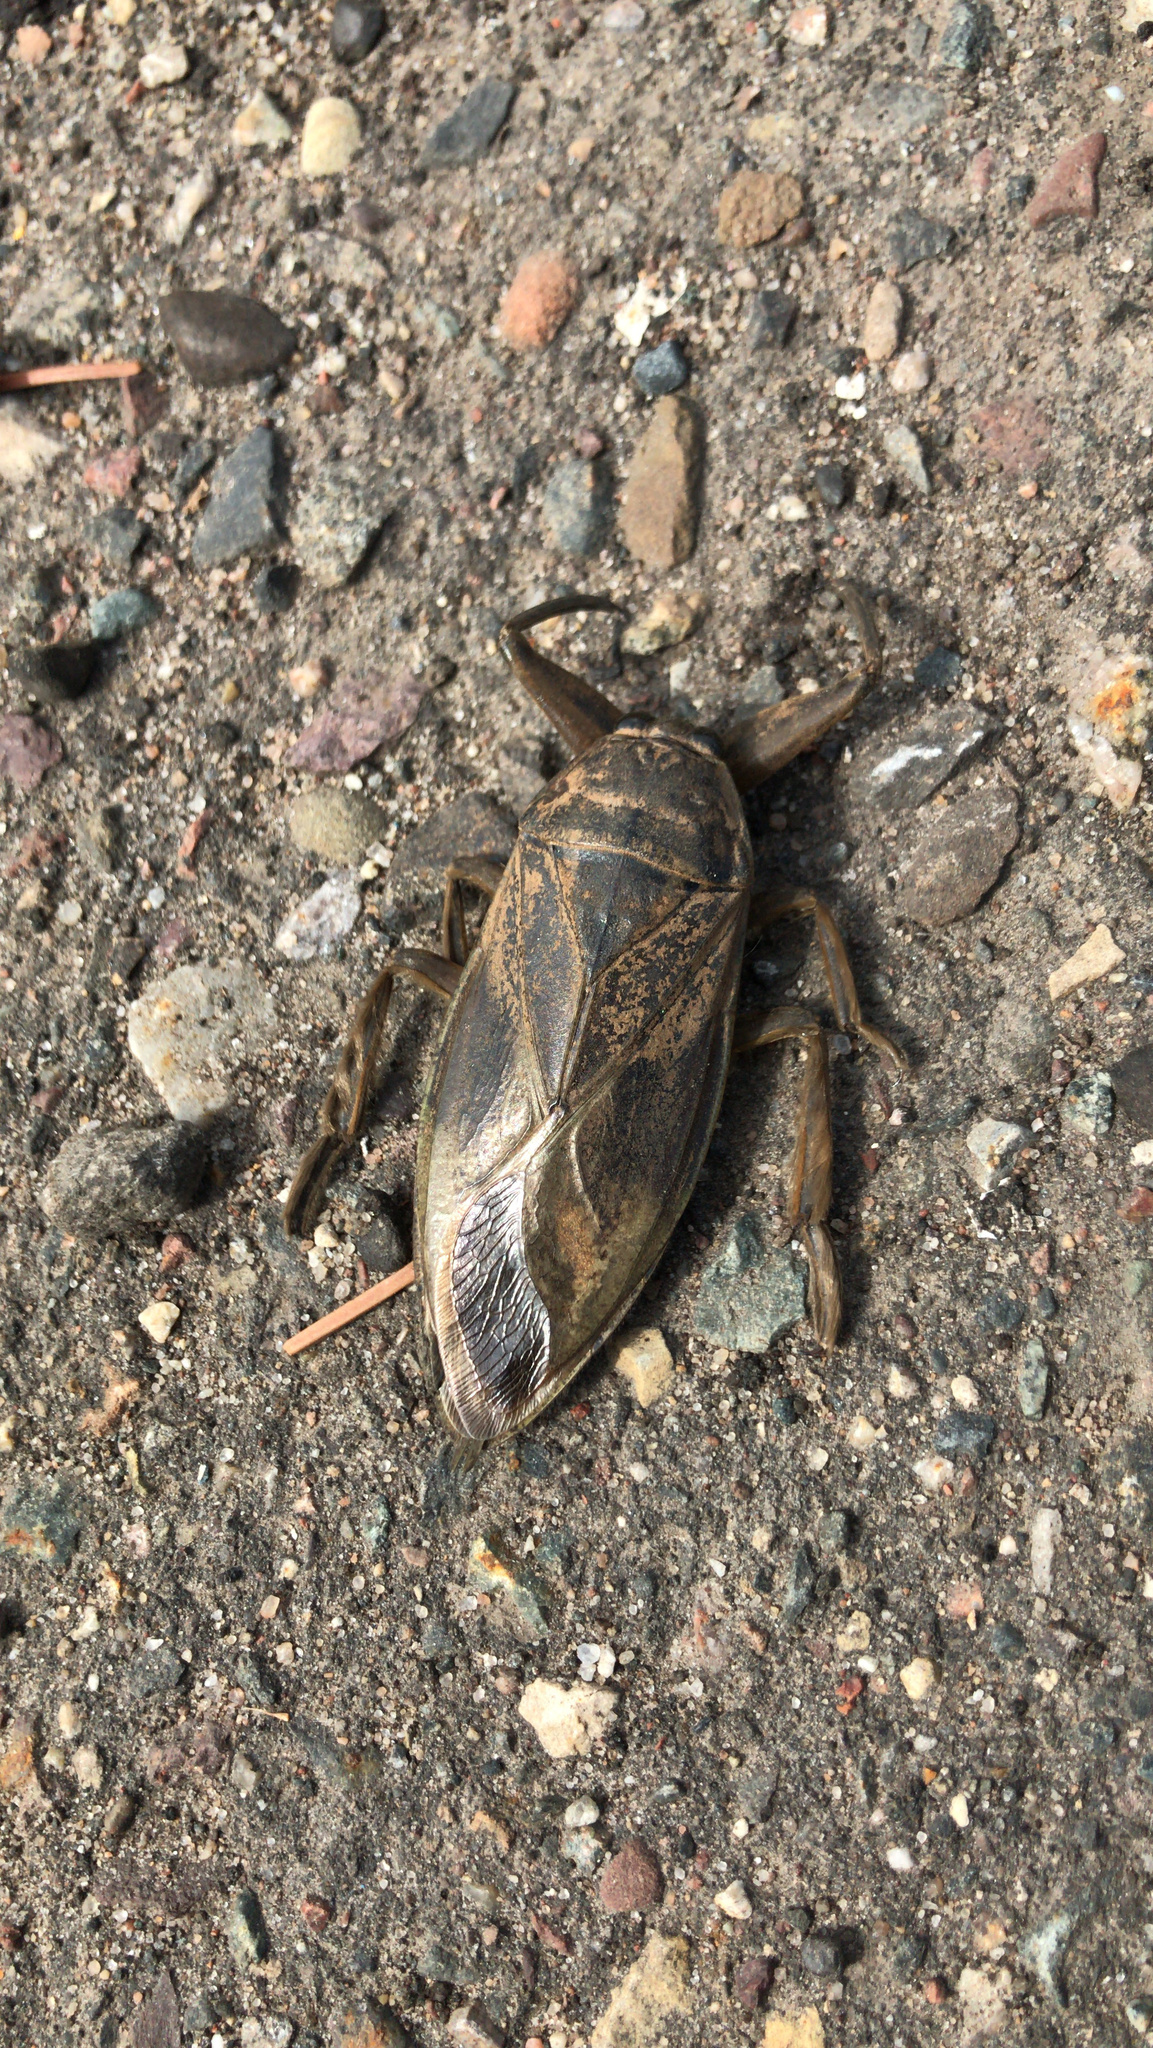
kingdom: Animalia
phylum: Arthropoda
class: Insecta
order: Hemiptera
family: Belostomatidae
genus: Lethocerus
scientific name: Lethocerus americanus
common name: Giant water bug
